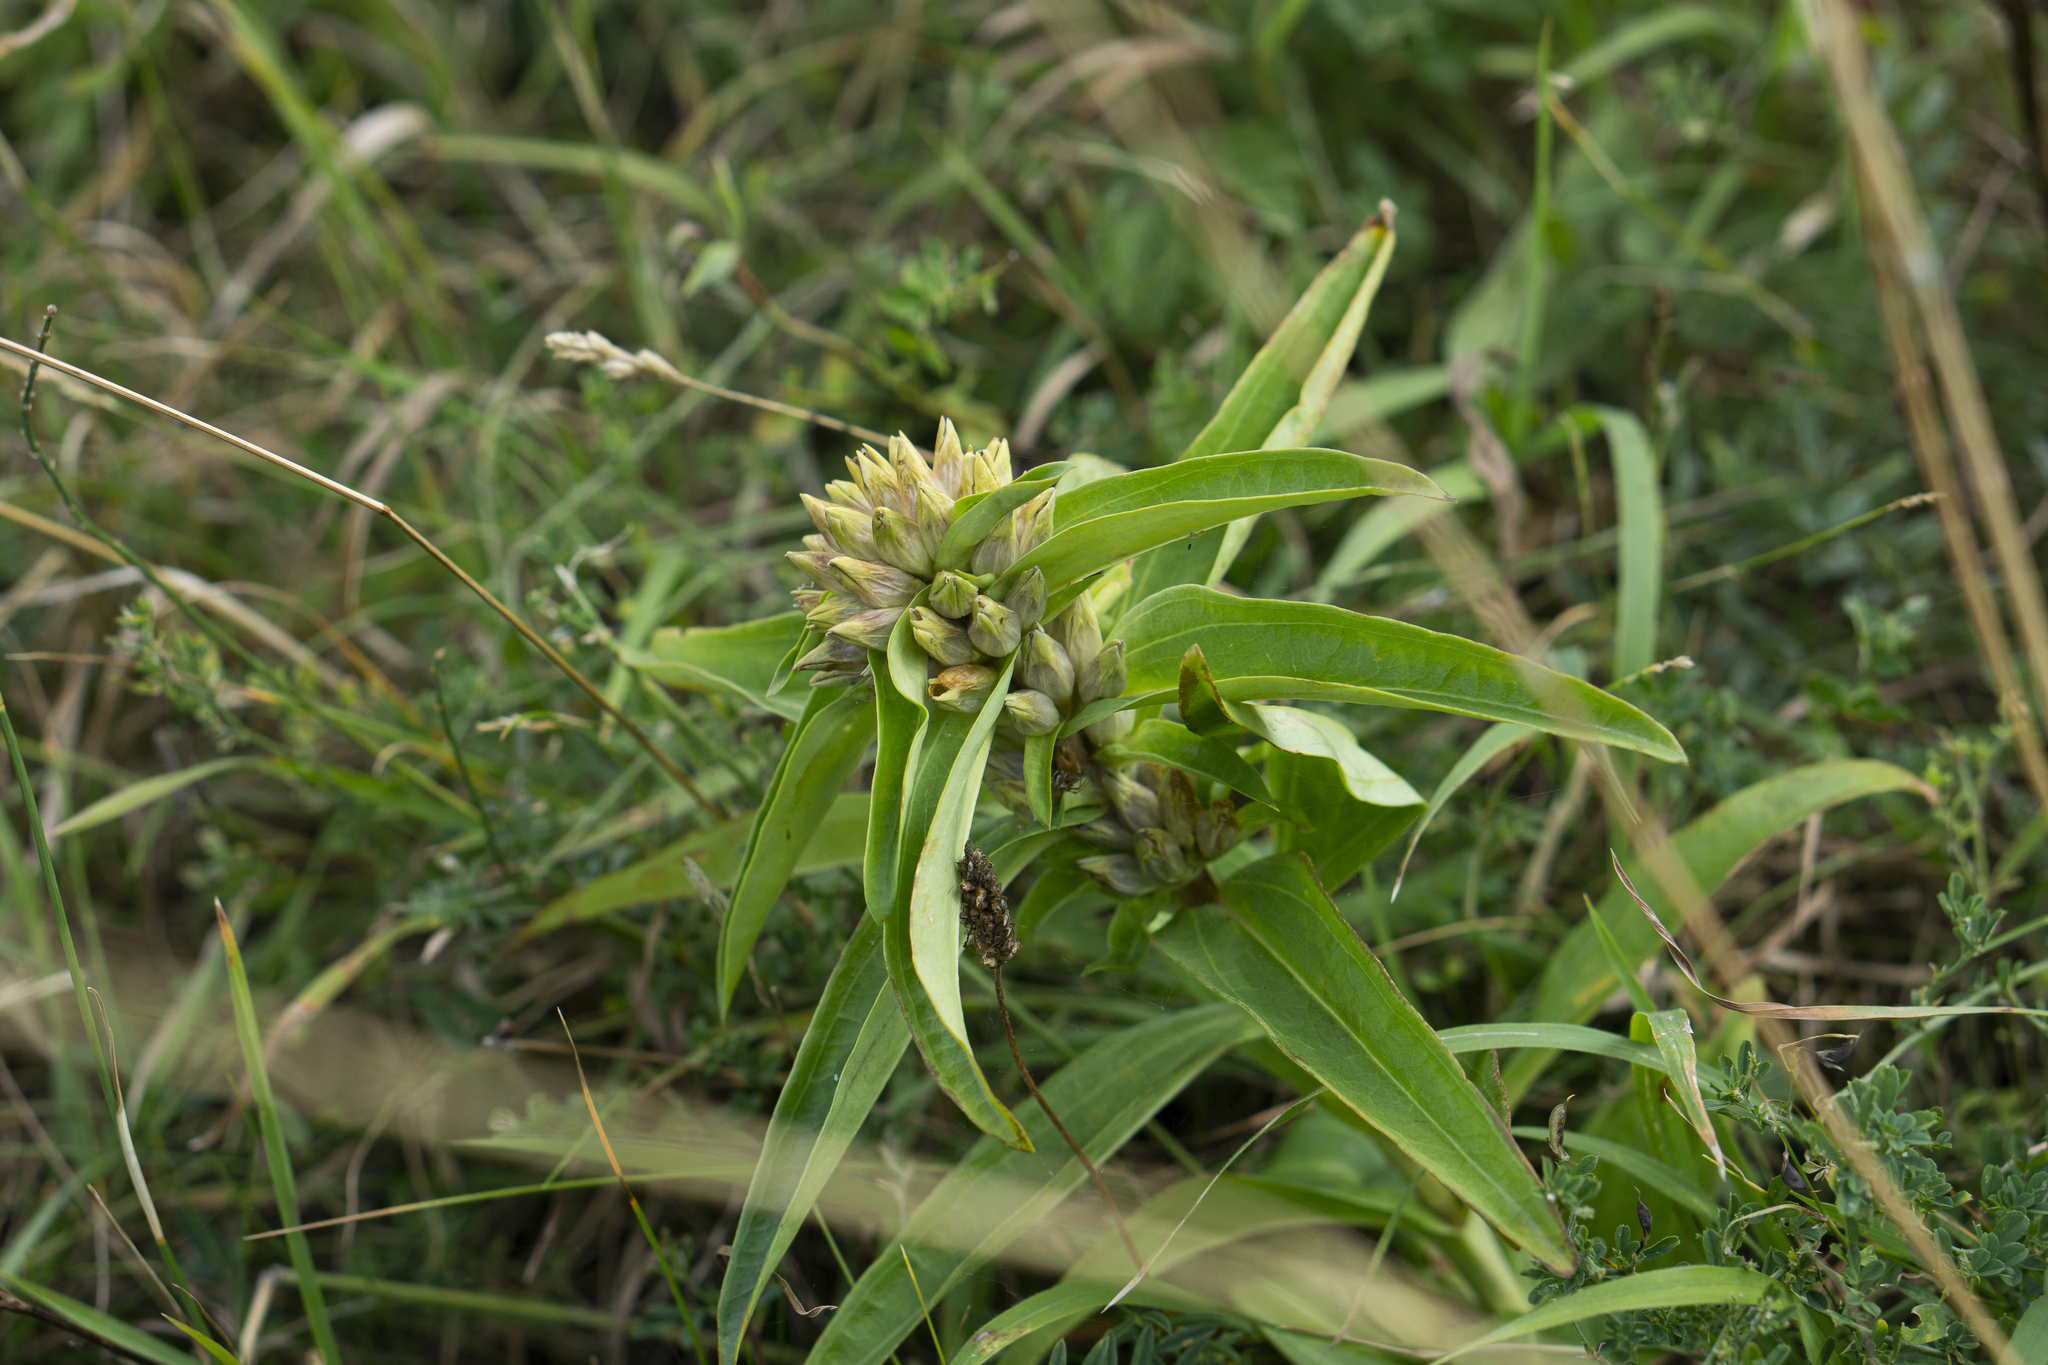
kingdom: Plantae
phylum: Tracheophyta
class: Magnoliopsida
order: Gentianales
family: Gentianaceae
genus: Gentiana
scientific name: Gentiana cruciata
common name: Cross gentian
